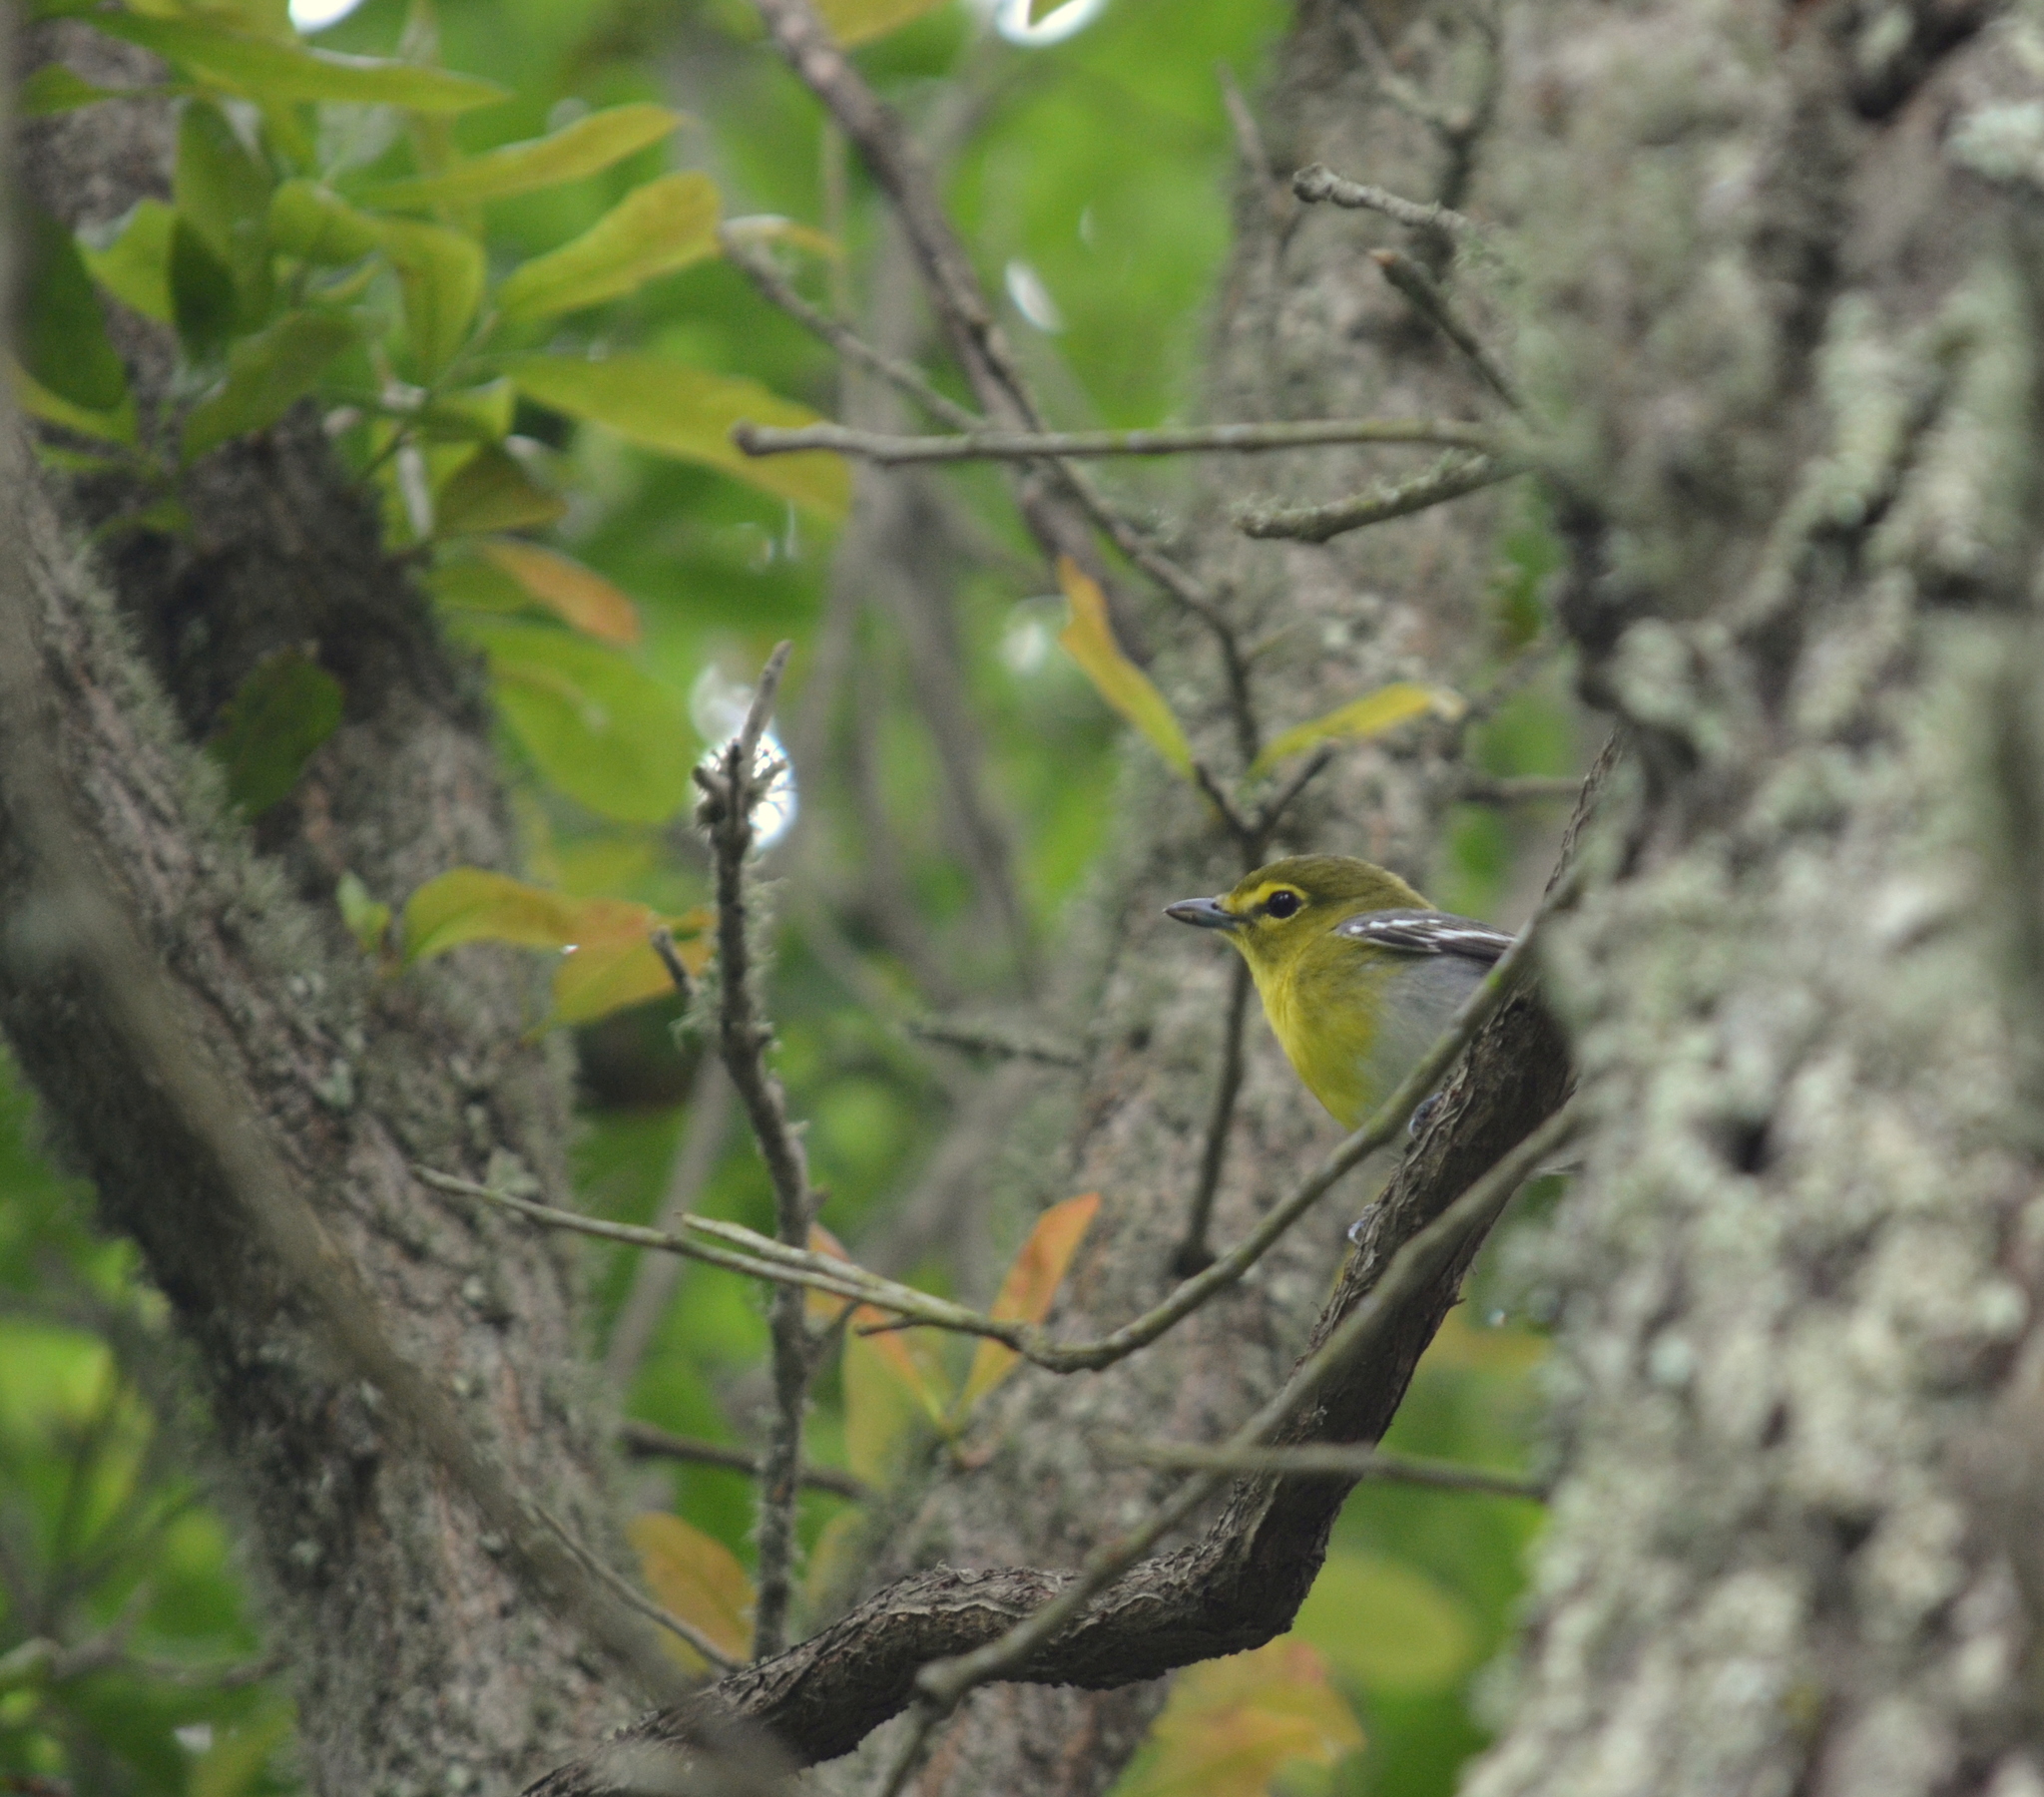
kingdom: Animalia
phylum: Chordata
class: Aves
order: Passeriformes
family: Vireonidae
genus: Vireo
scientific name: Vireo flavifrons
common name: Yellow-throated vireo
